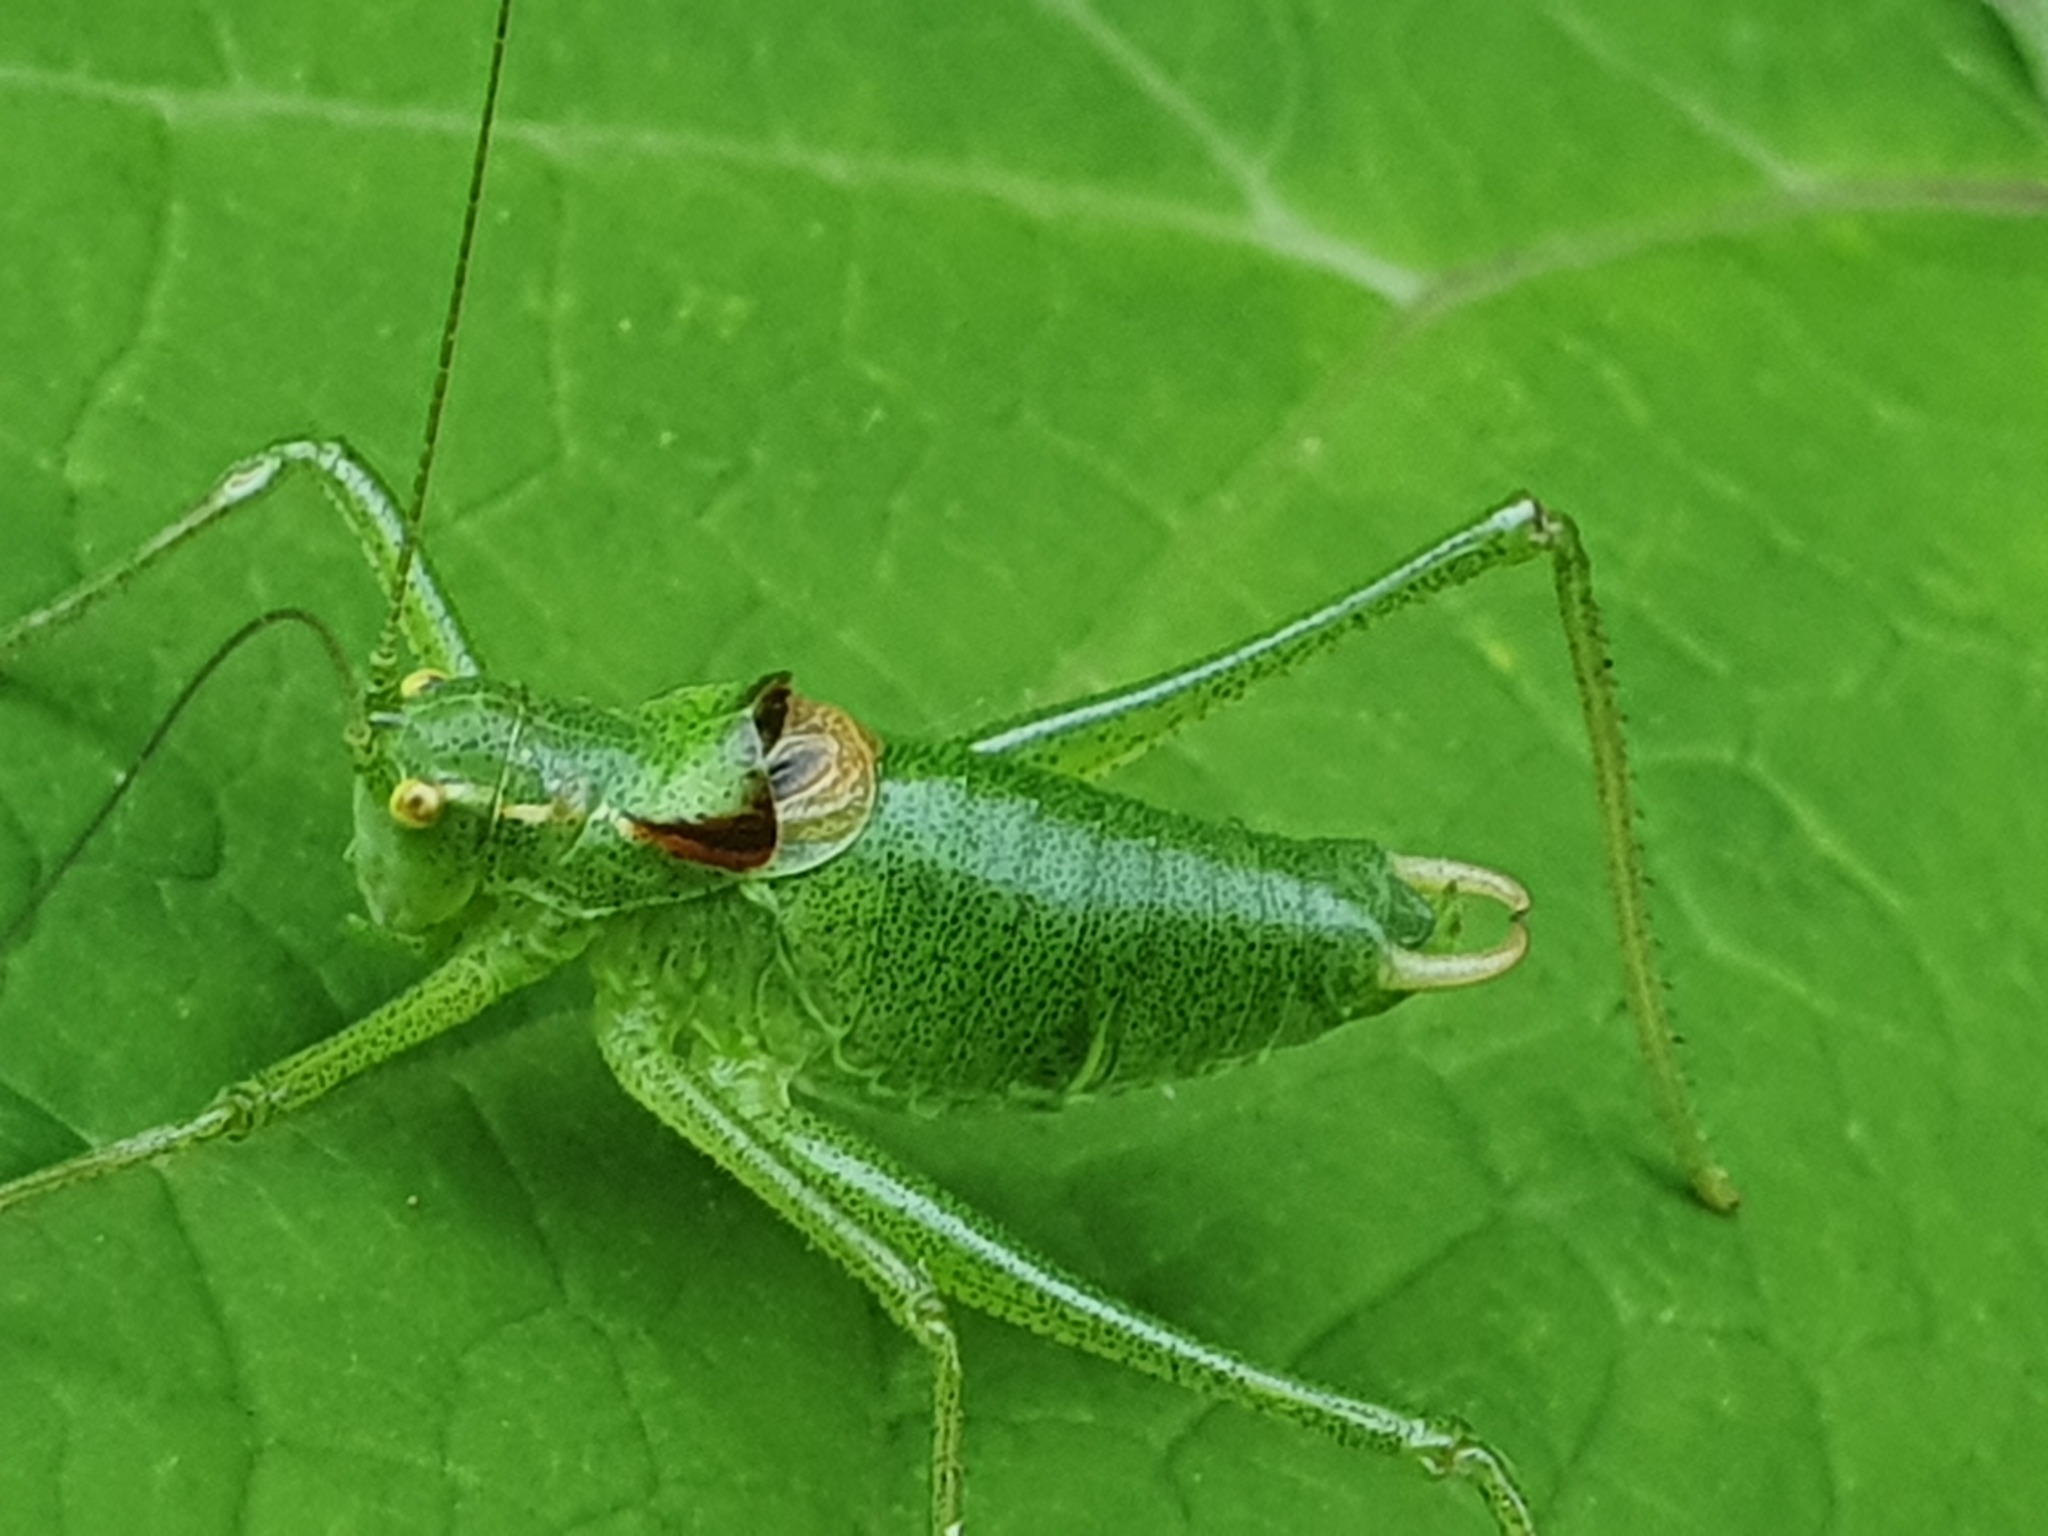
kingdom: Animalia
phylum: Arthropoda
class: Insecta
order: Orthoptera
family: Tettigoniidae
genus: Poecilimon
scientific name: Poecilimon gracilis
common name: Slender bright bush-cricket
